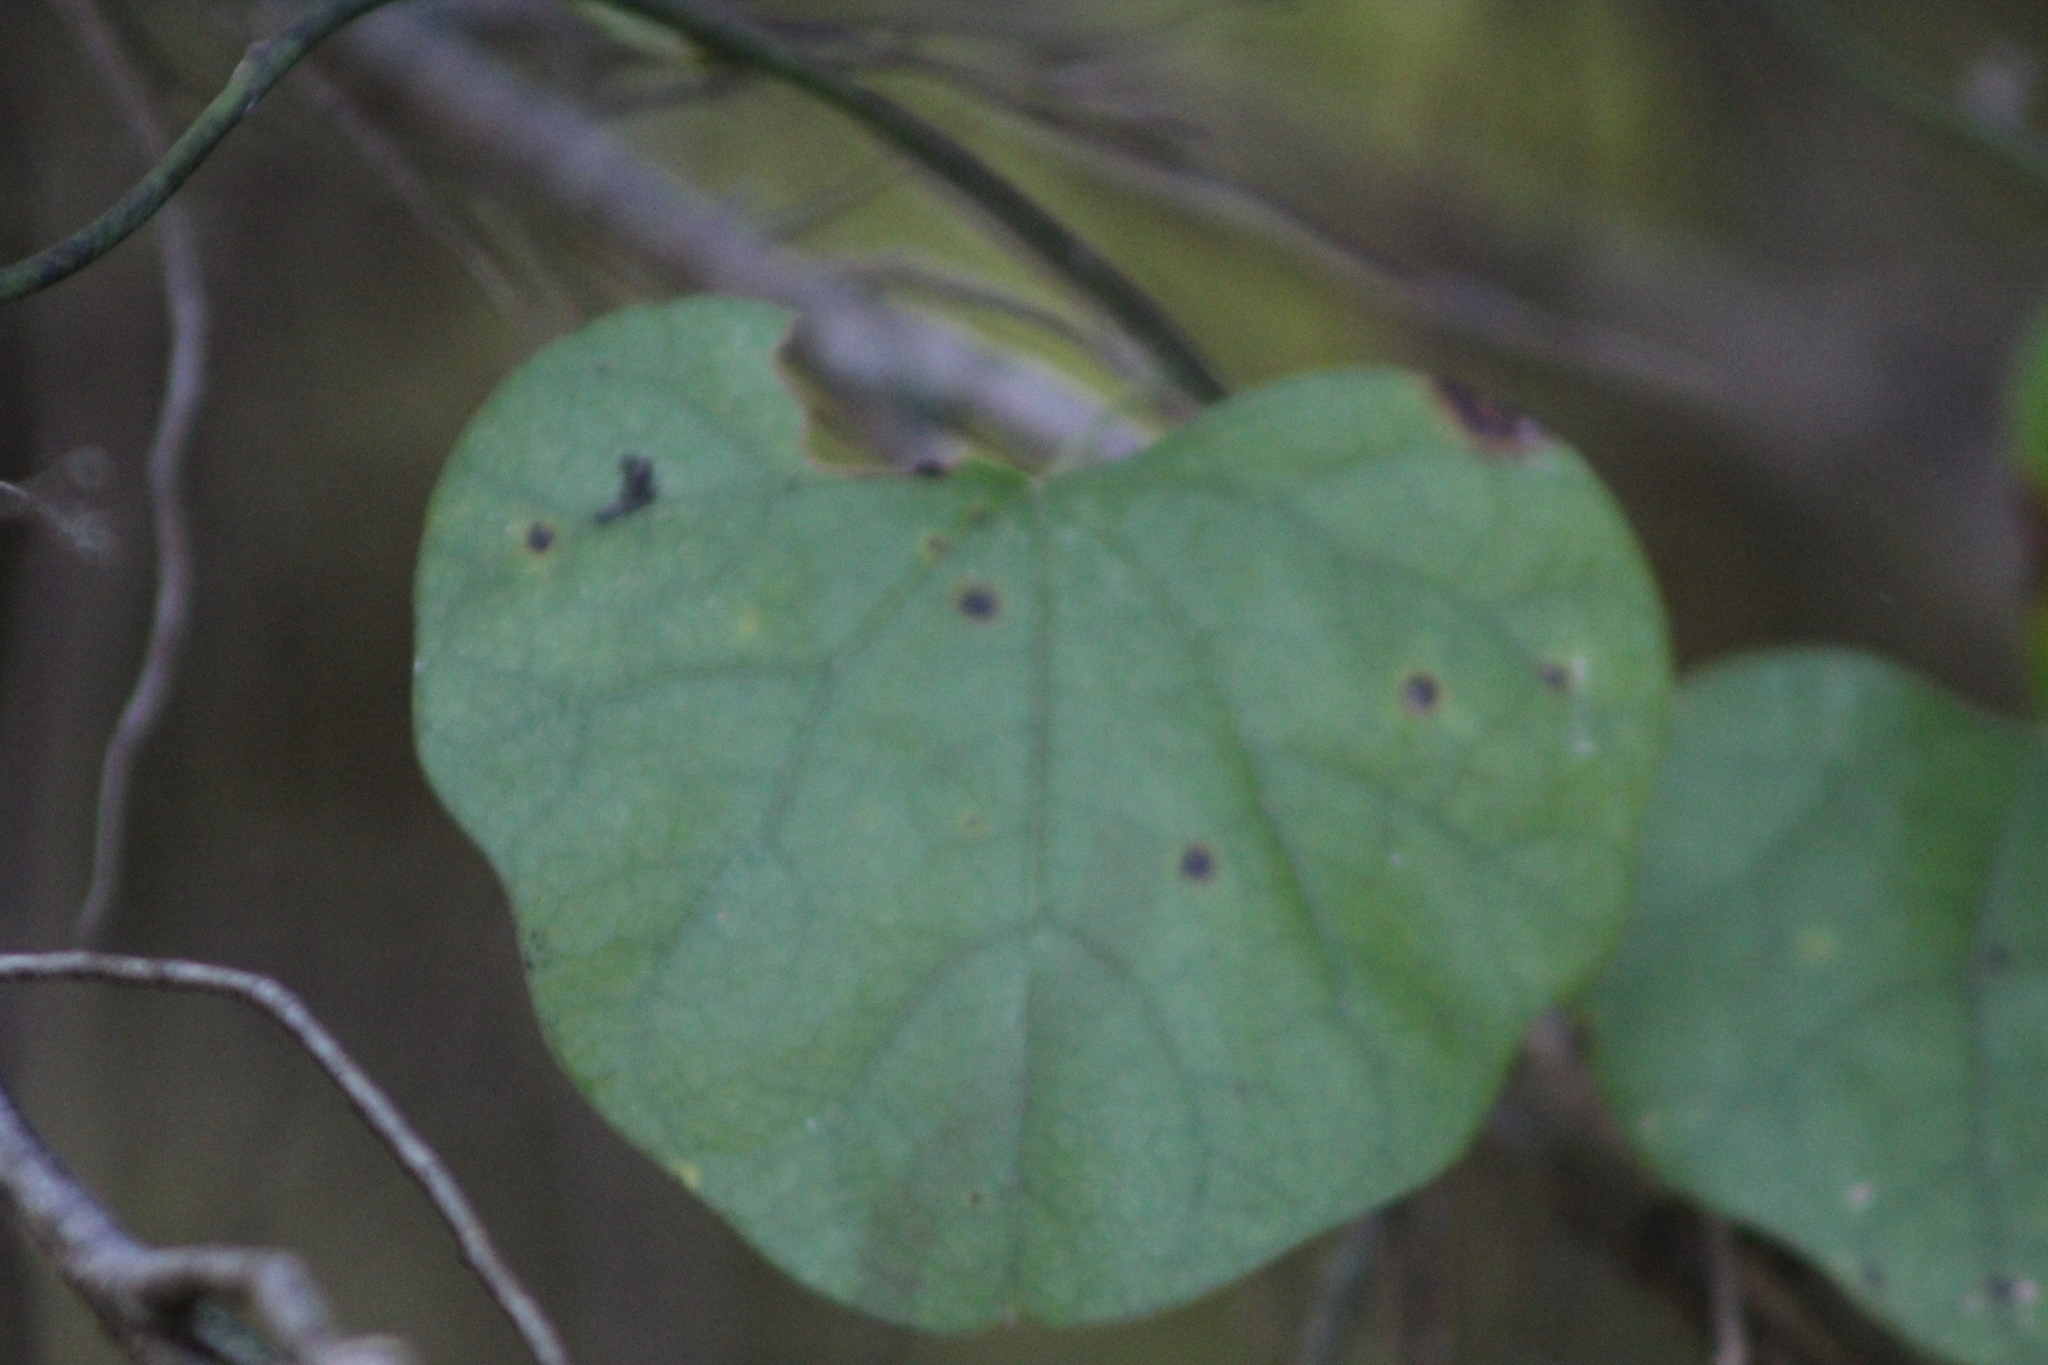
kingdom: Plantae
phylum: Tracheophyta
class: Magnoliopsida
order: Ranunculales
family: Menispermaceae
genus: Cocculus
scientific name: Cocculus carolinus
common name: Carolina moonseed
